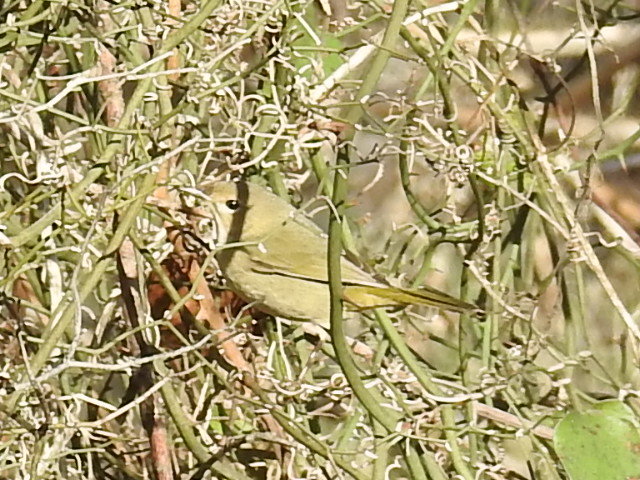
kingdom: Animalia
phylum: Chordata
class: Aves
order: Passeriformes
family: Parulidae
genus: Geothlypis
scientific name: Geothlypis trichas
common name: Common yellowthroat
